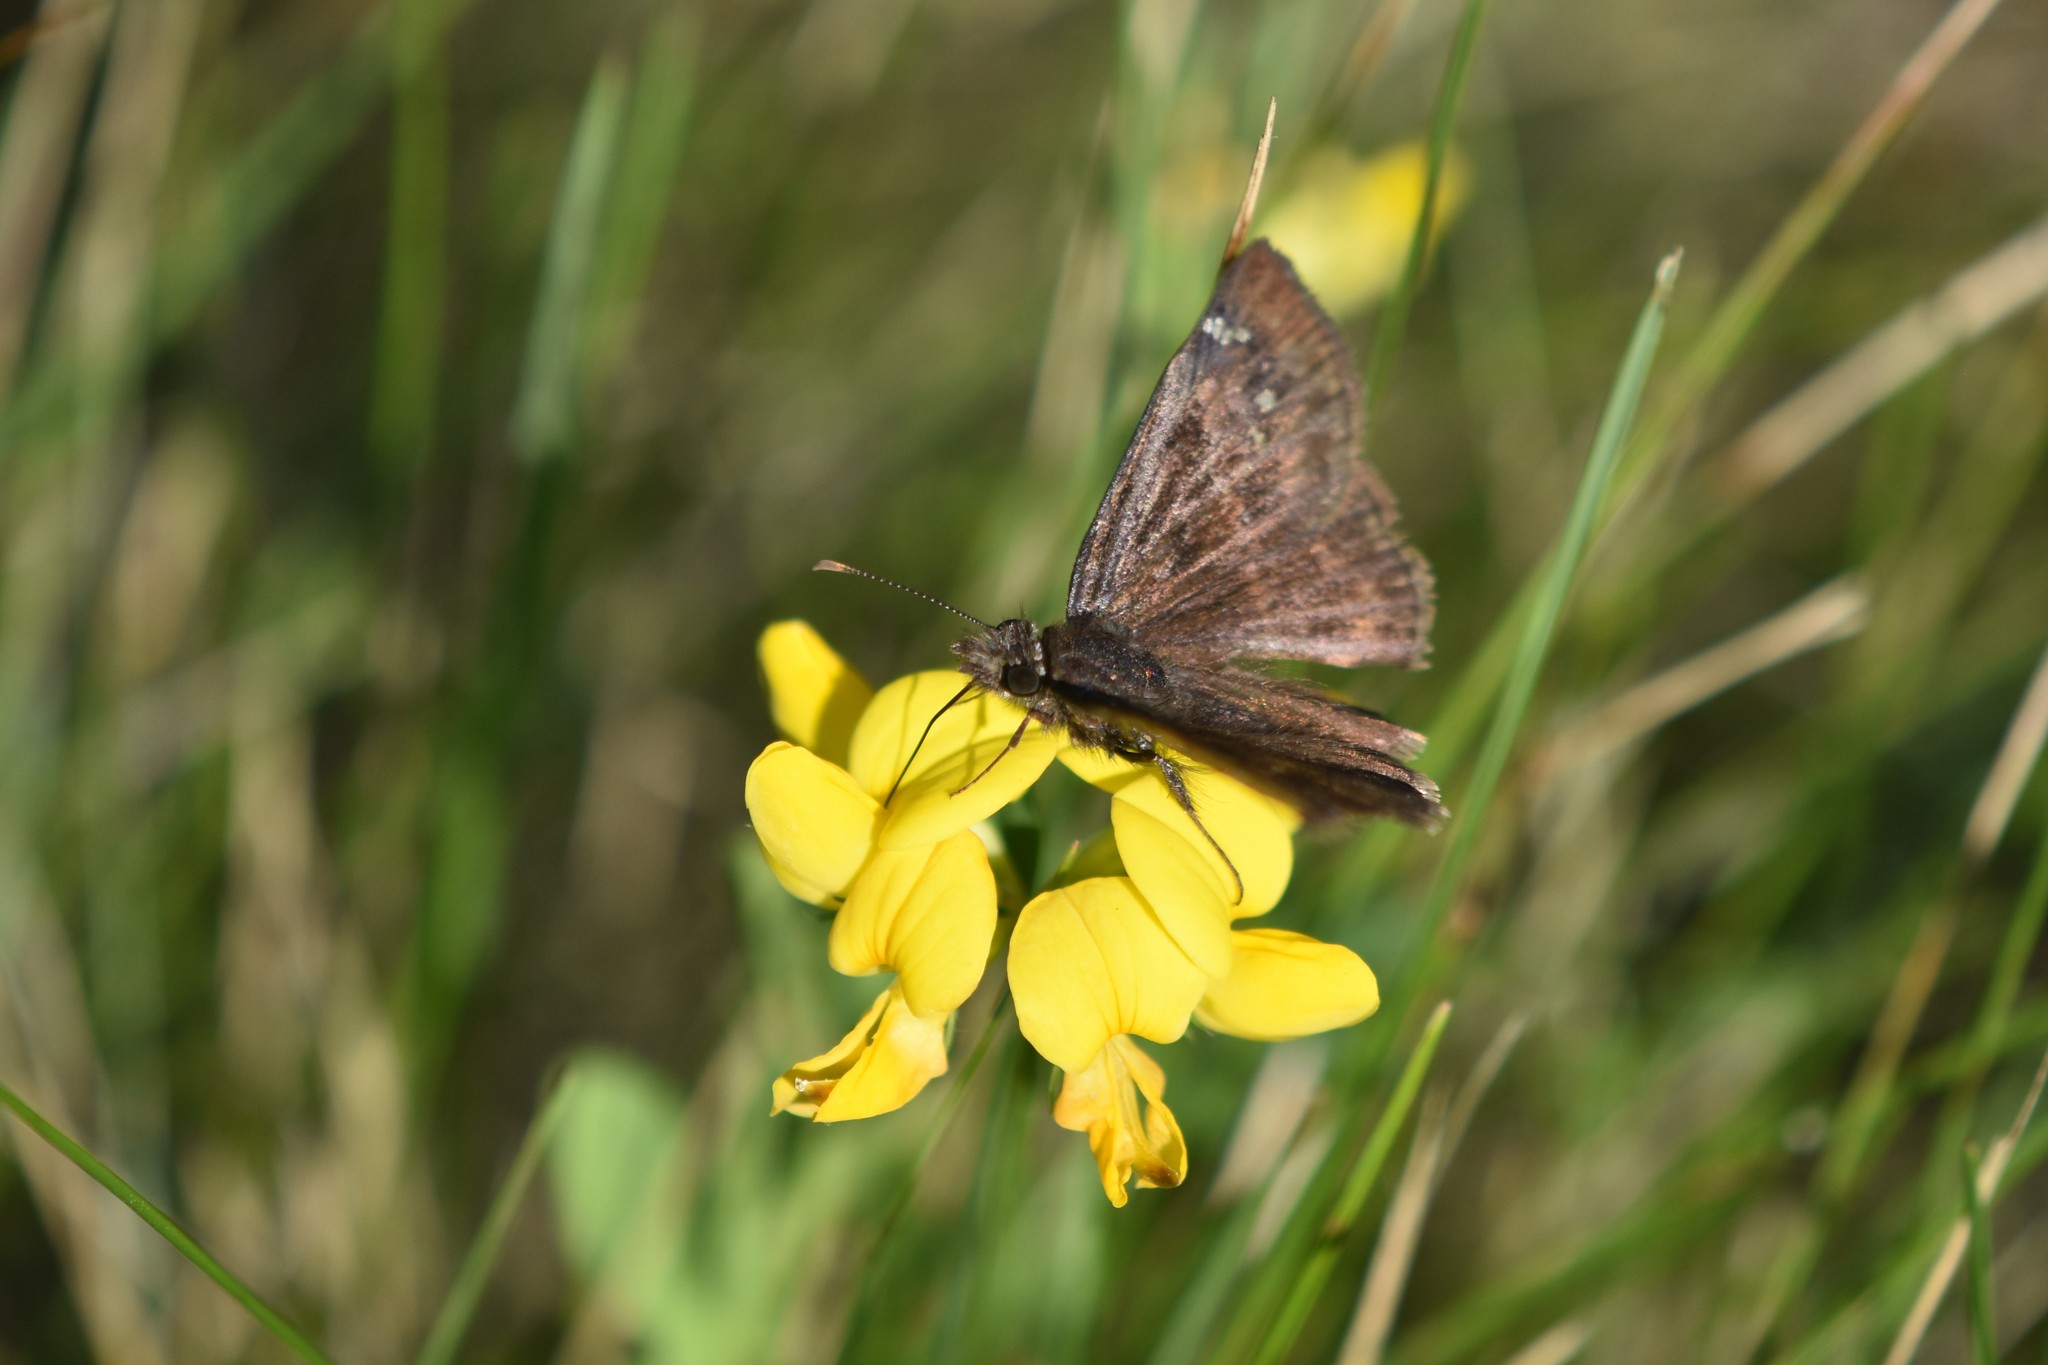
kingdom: Animalia
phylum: Arthropoda
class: Insecta
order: Lepidoptera
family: Hesperiidae
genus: Erynnis
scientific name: Erynnis baptisiae
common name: Wild indigo duskywing
